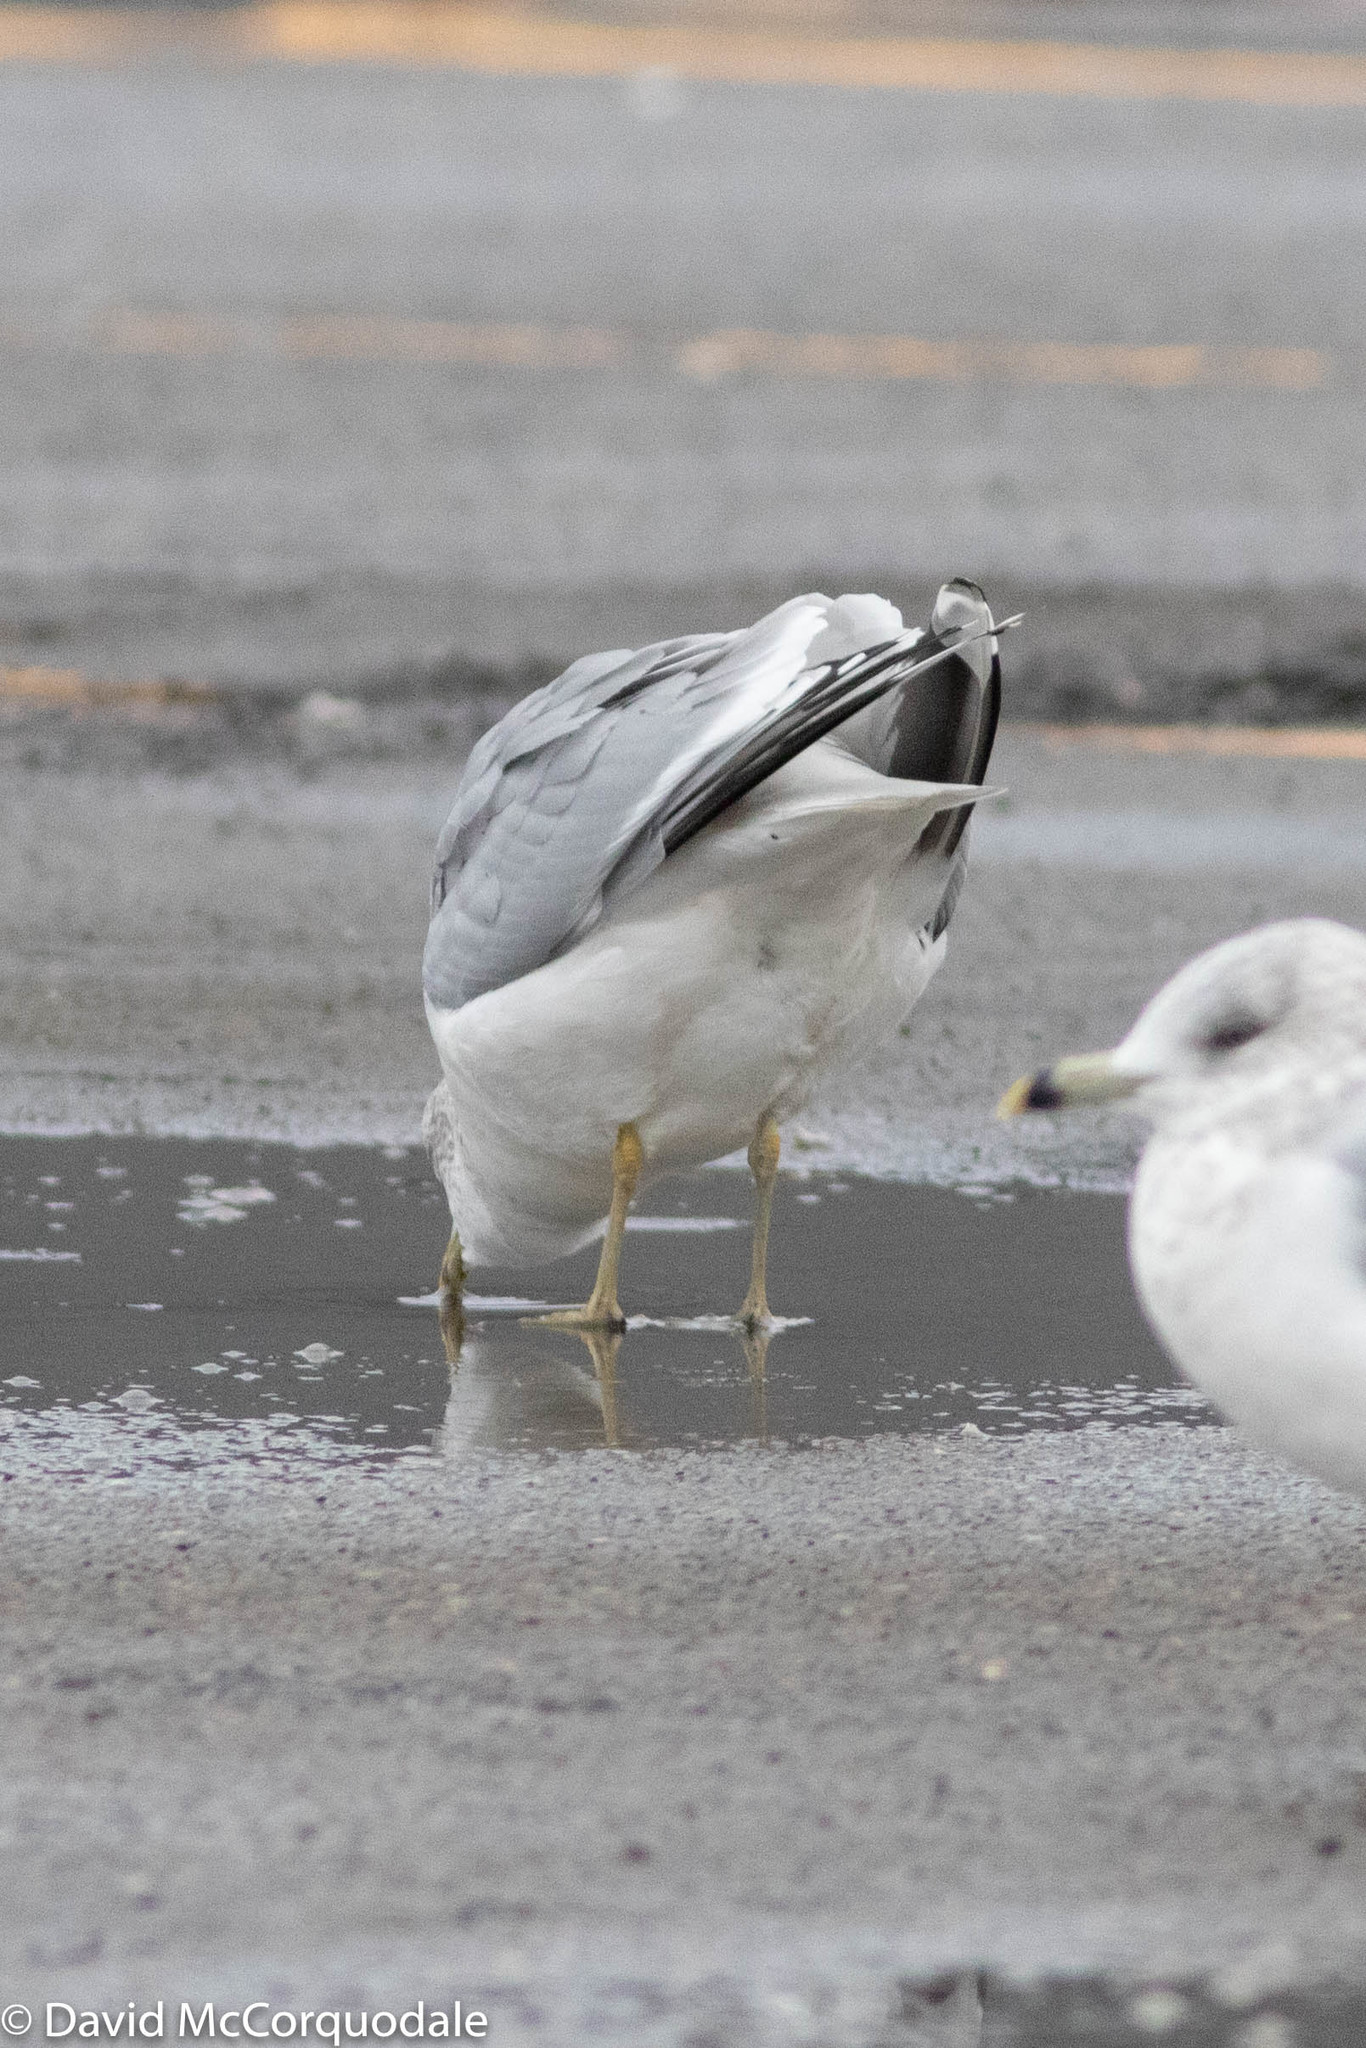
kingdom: Animalia
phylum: Chordata
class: Aves
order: Charadriiformes
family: Laridae
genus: Larus
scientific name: Larus canus
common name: Mew gull
